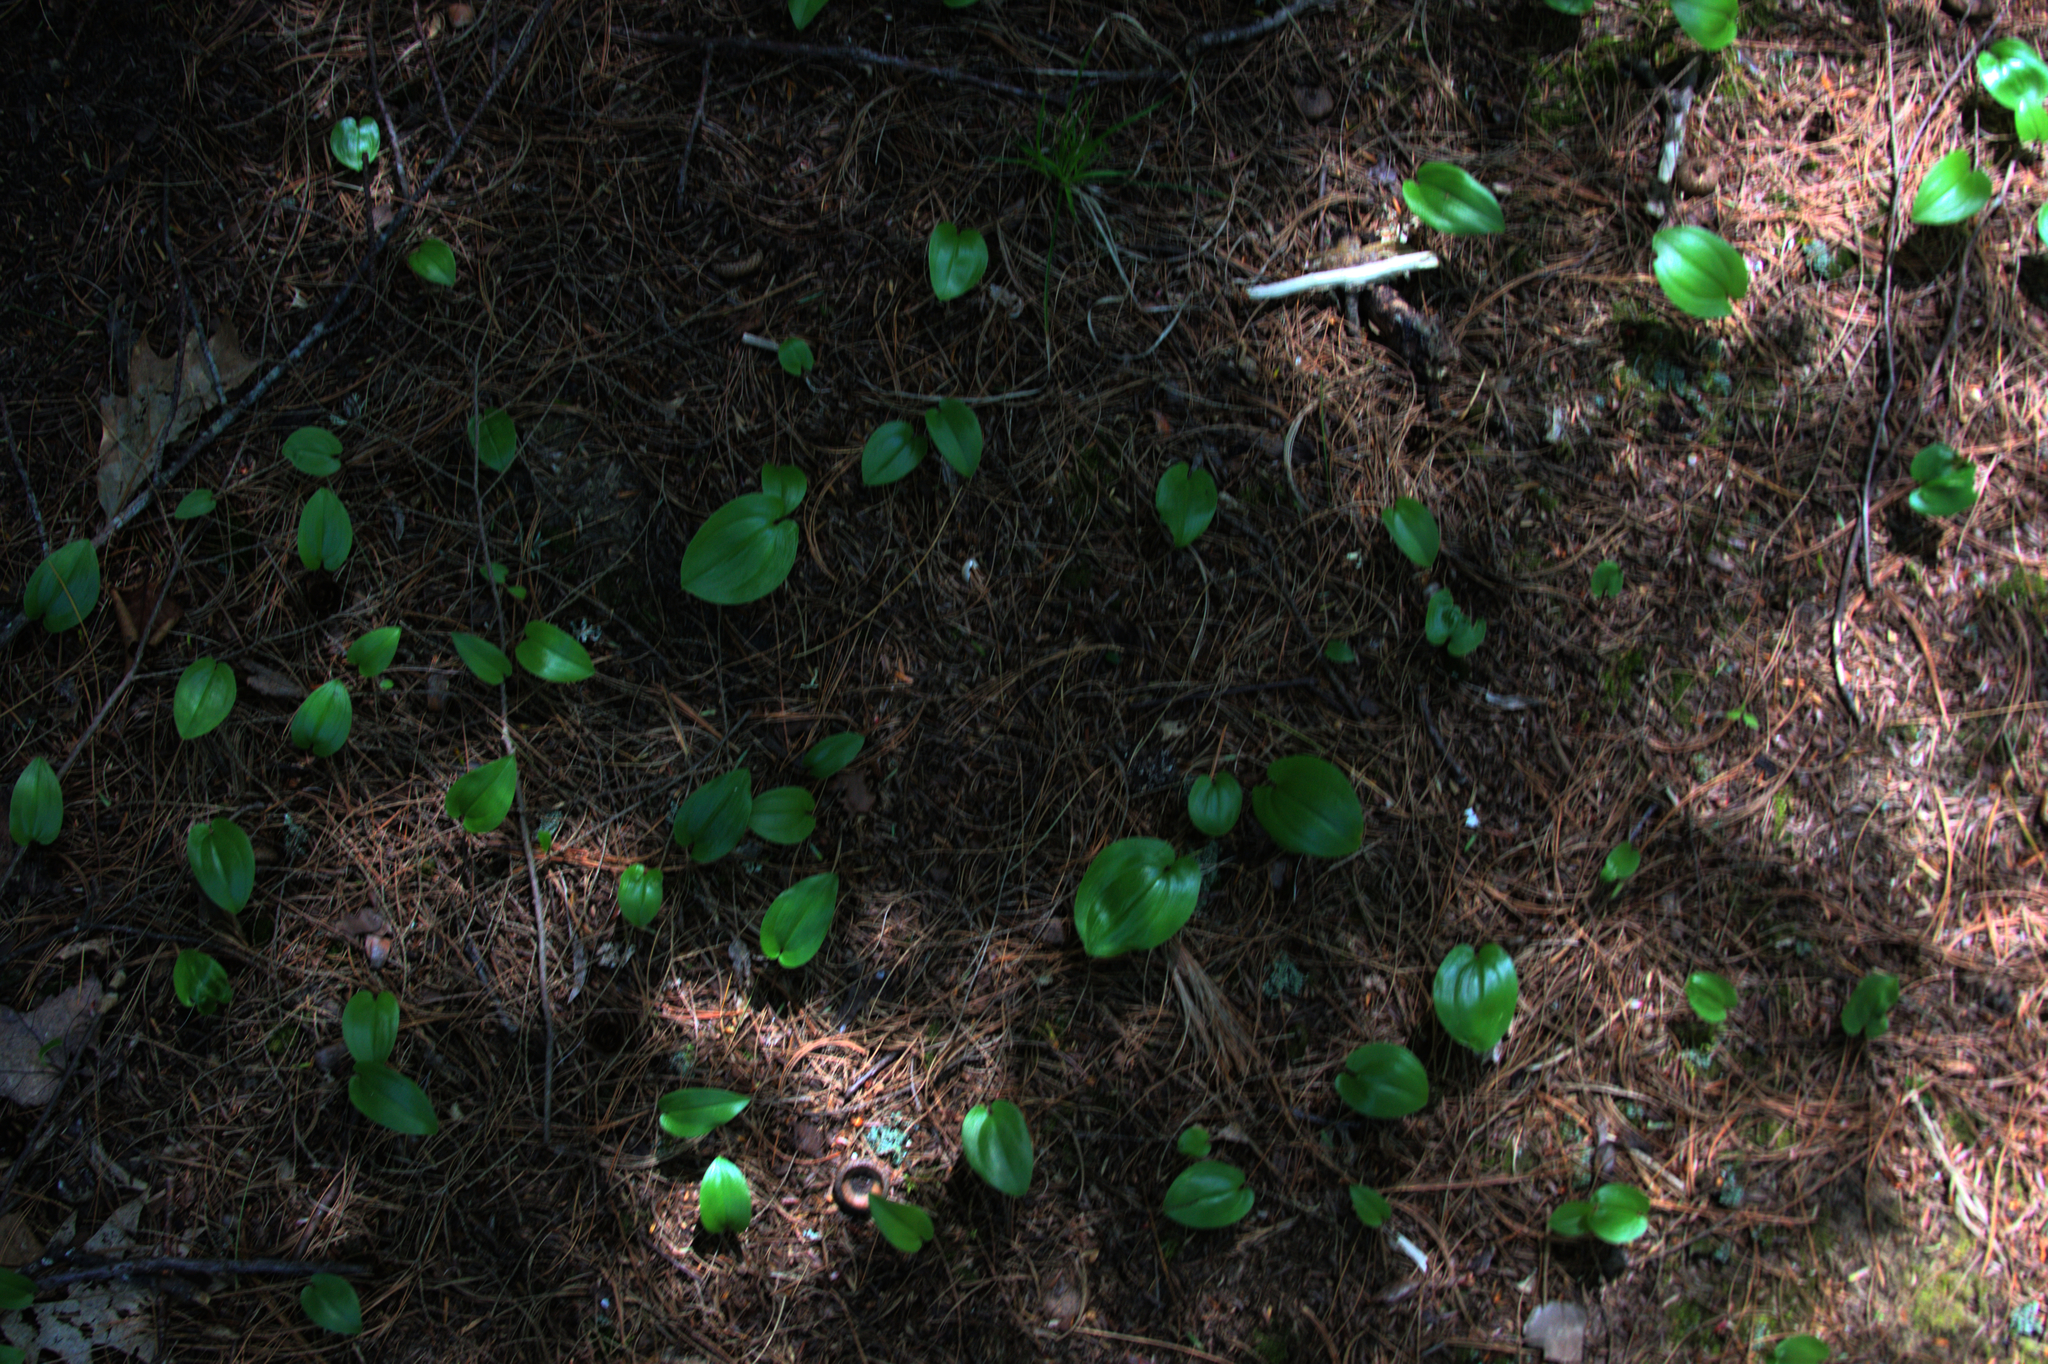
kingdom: Plantae
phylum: Tracheophyta
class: Liliopsida
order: Asparagales
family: Asparagaceae
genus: Maianthemum
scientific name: Maianthemum canadense
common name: False lily-of-the-valley
